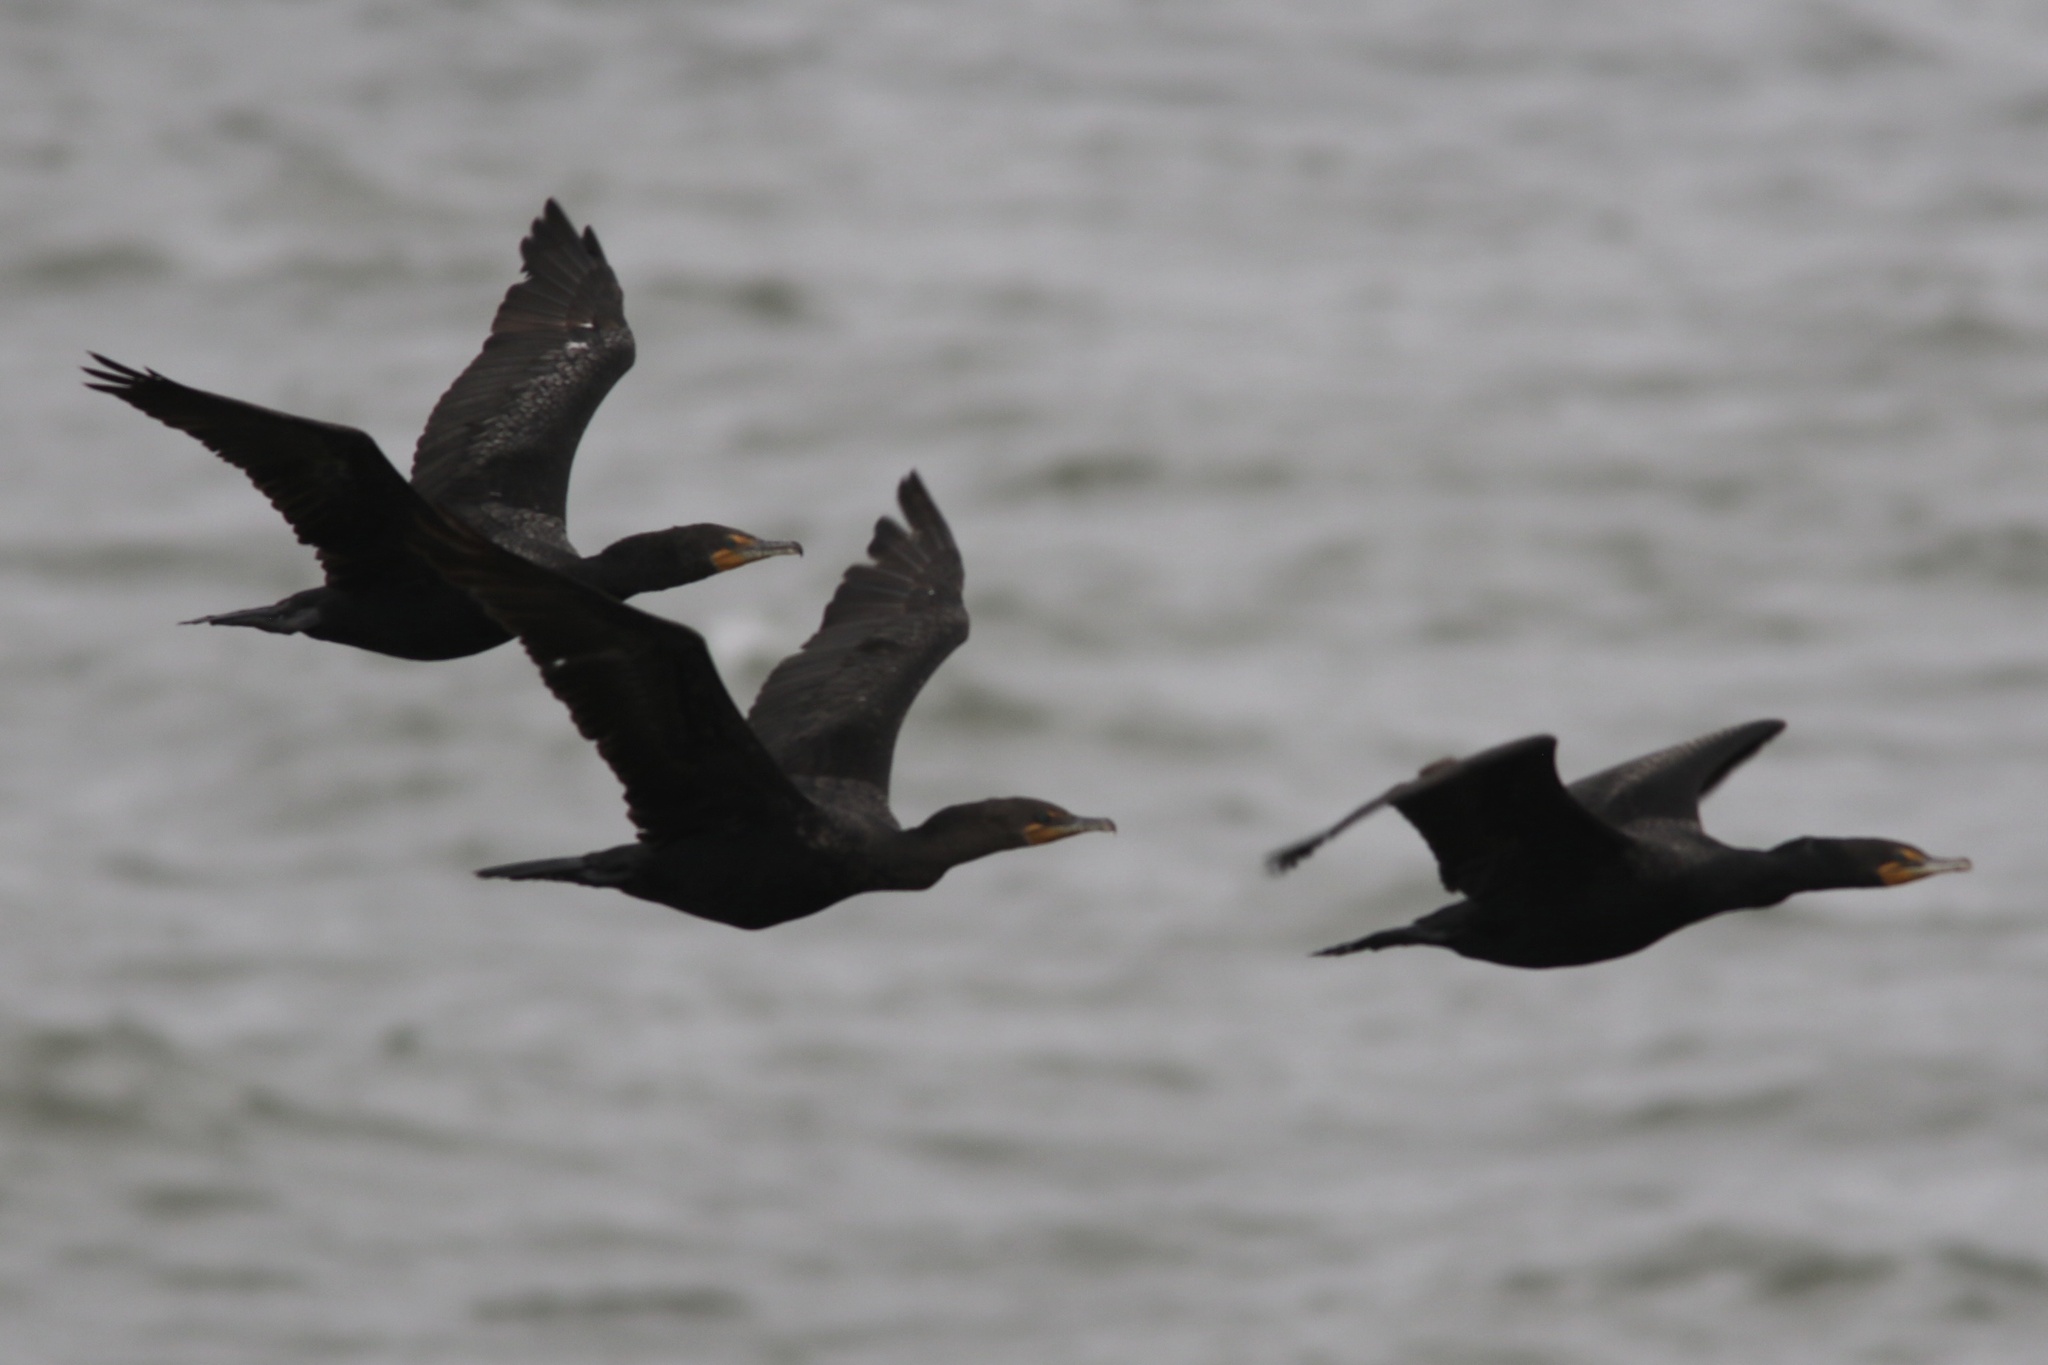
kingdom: Animalia
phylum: Chordata
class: Aves
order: Suliformes
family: Phalacrocoracidae
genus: Phalacrocorax
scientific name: Phalacrocorax auritus
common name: Double-crested cormorant
